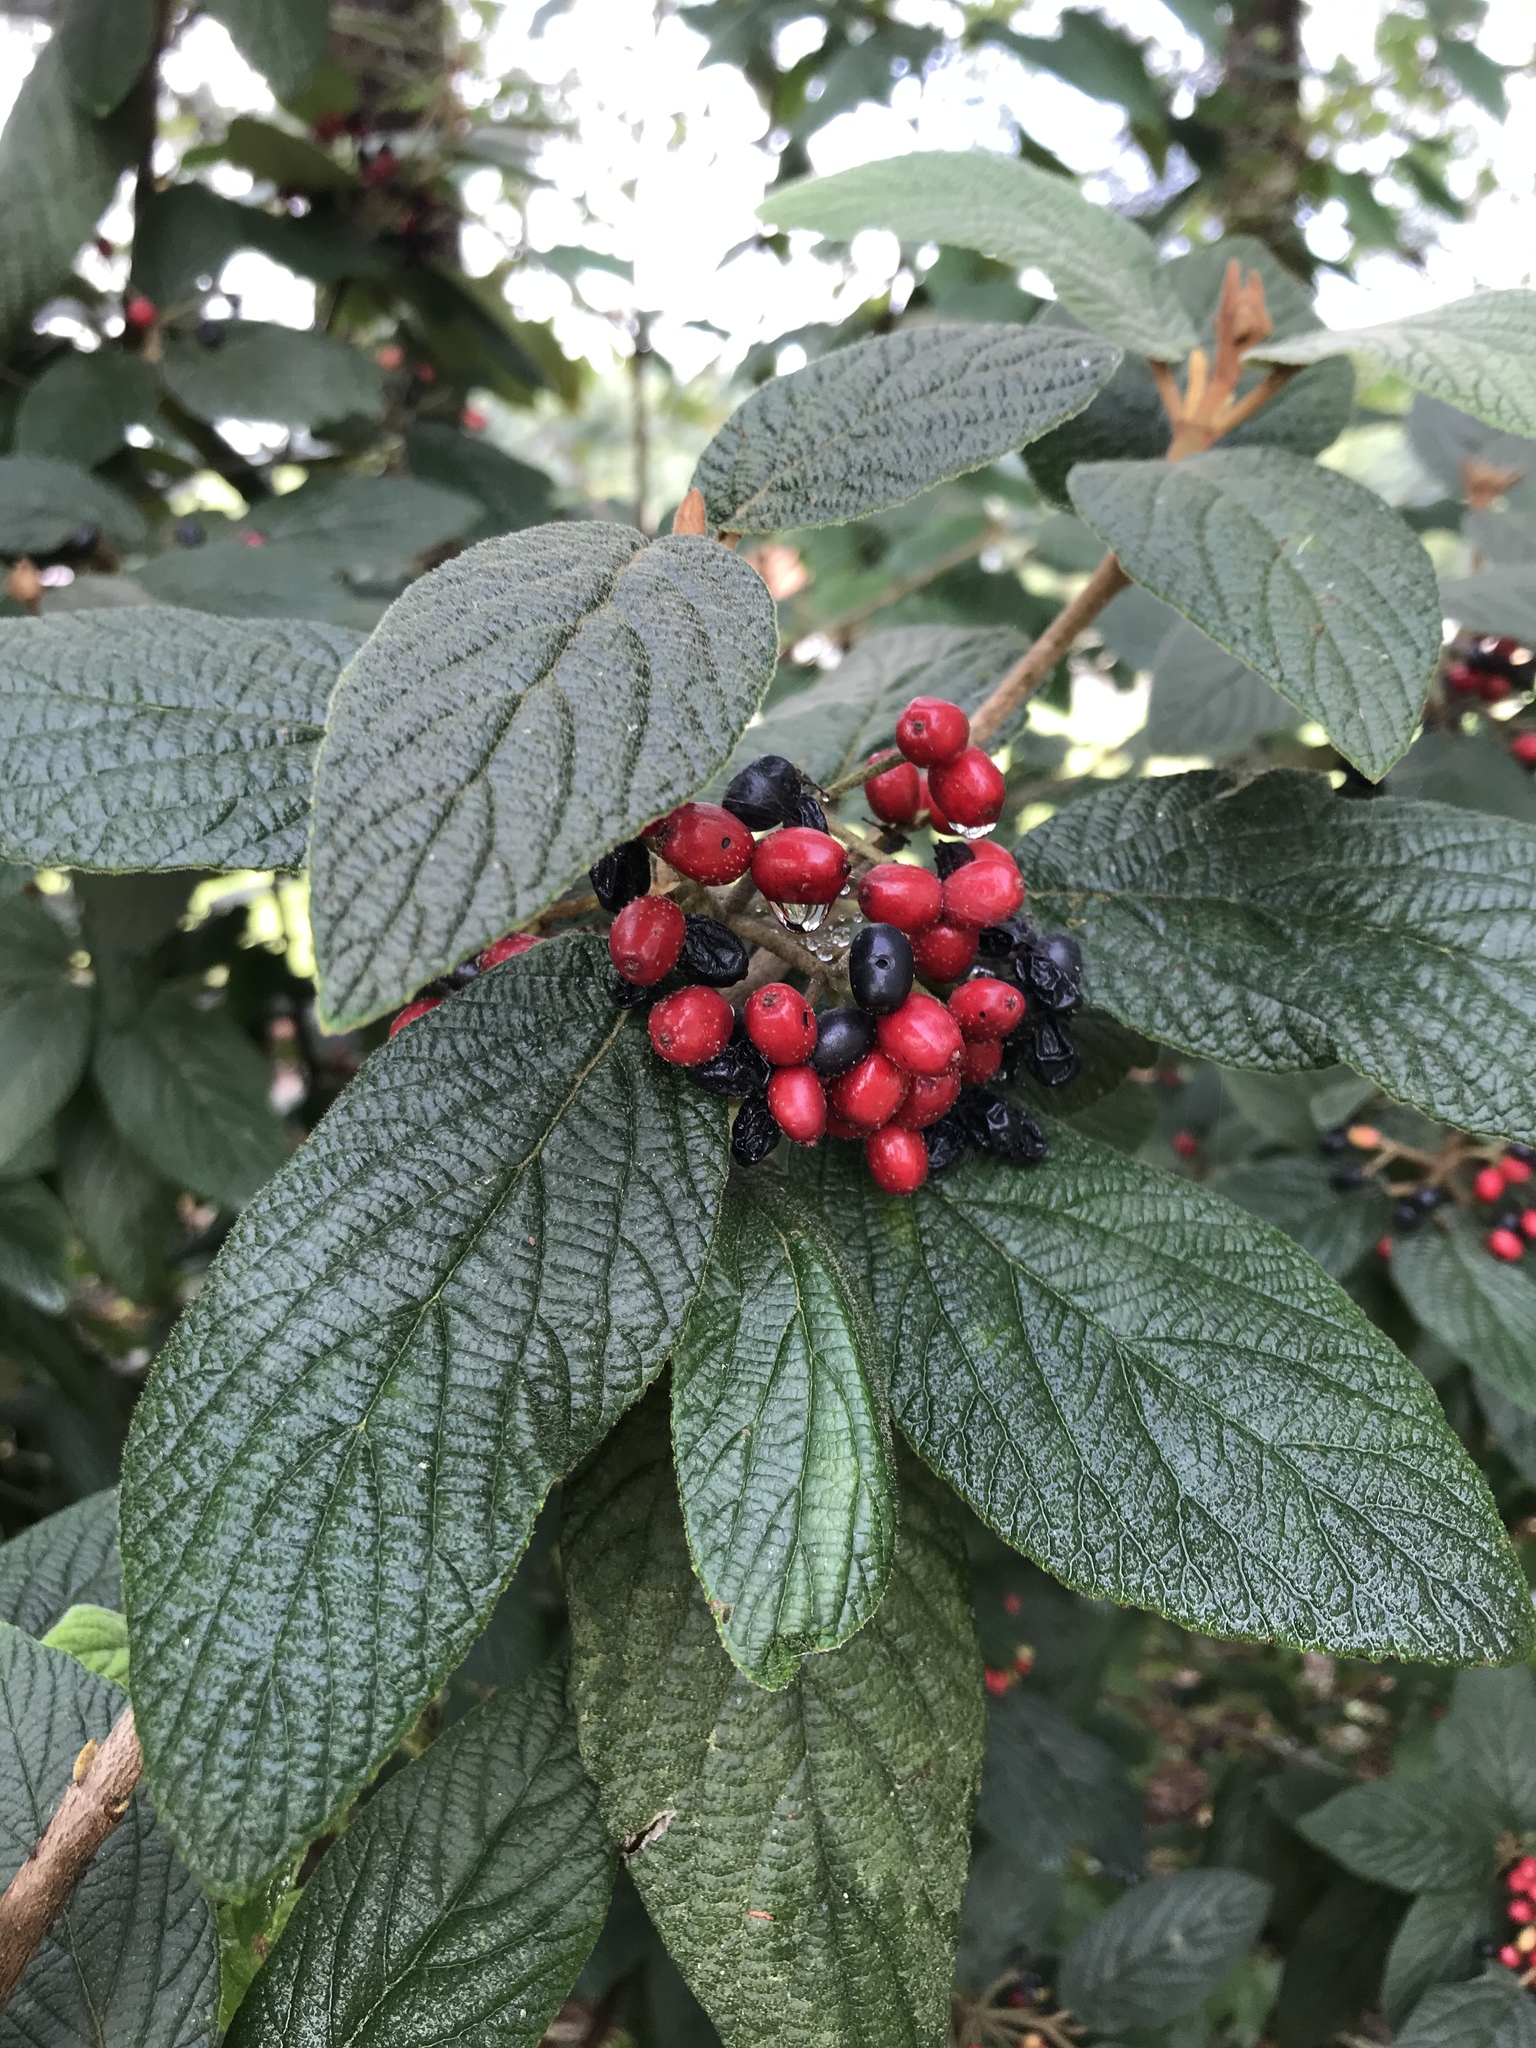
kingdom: Plantae
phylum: Tracheophyta
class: Magnoliopsida
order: Dipsacales
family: Viburnaceae
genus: Viburnum
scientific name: Viburnum rhytidophyllum
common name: Wrinkled viburnum
